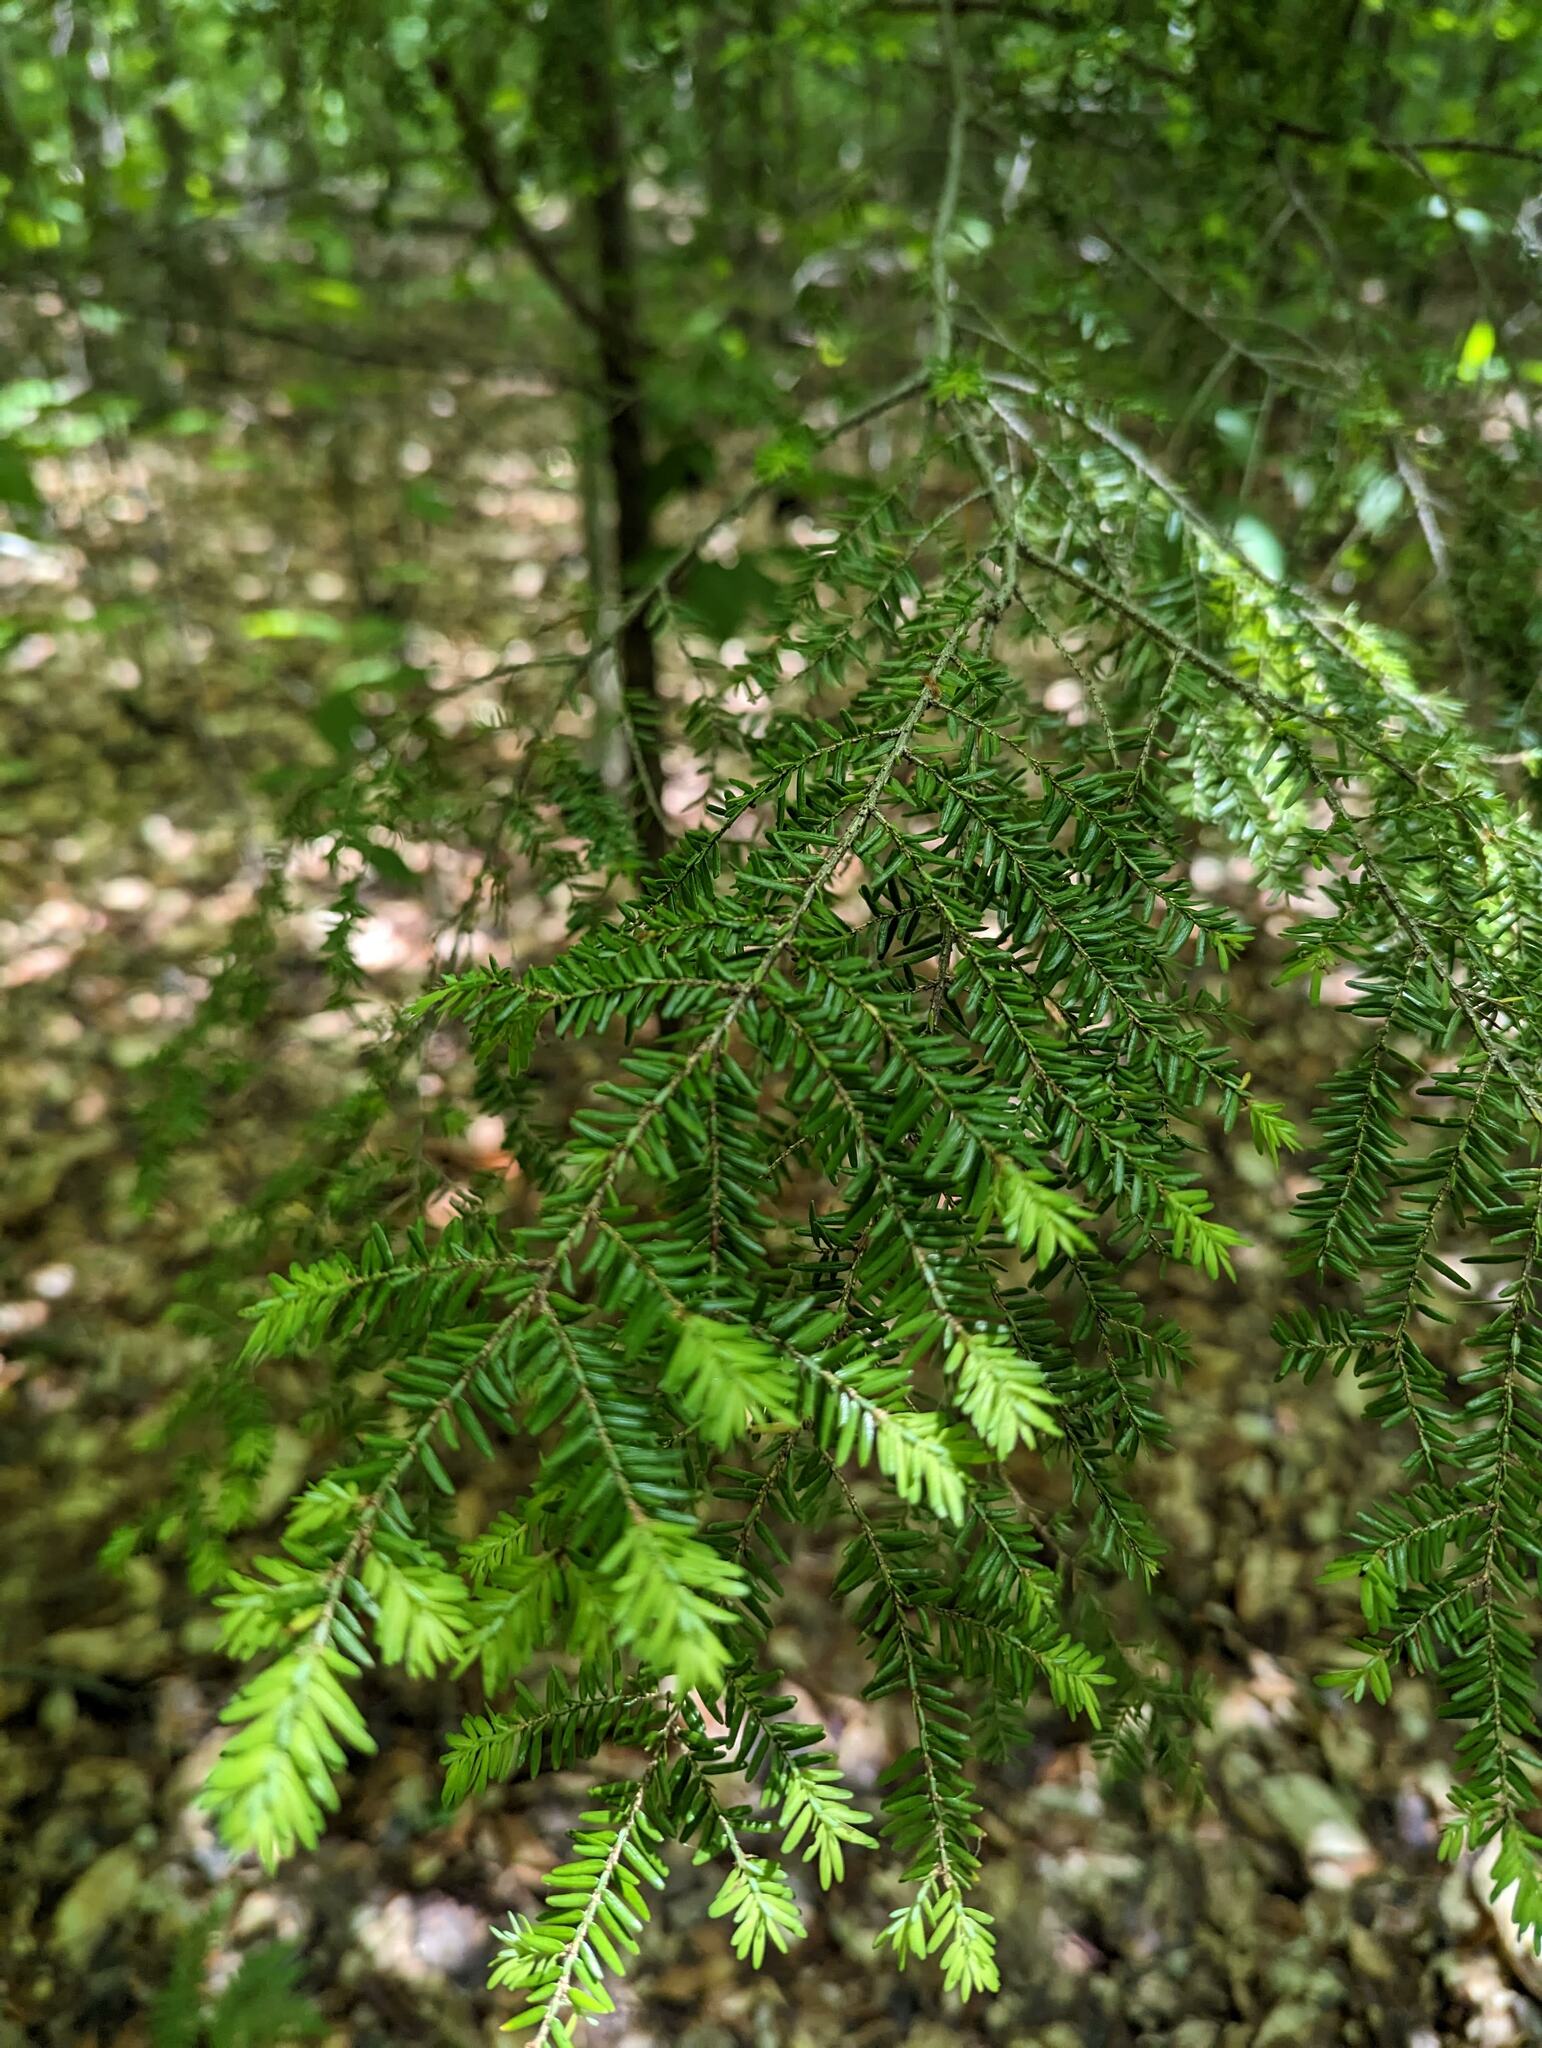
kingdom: Plantae
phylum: Tracheophyta
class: Pinopsida
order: Pinales
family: Pinaceae
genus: Tsuga
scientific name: Tsuga canadensis
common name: Eastern hemlock
